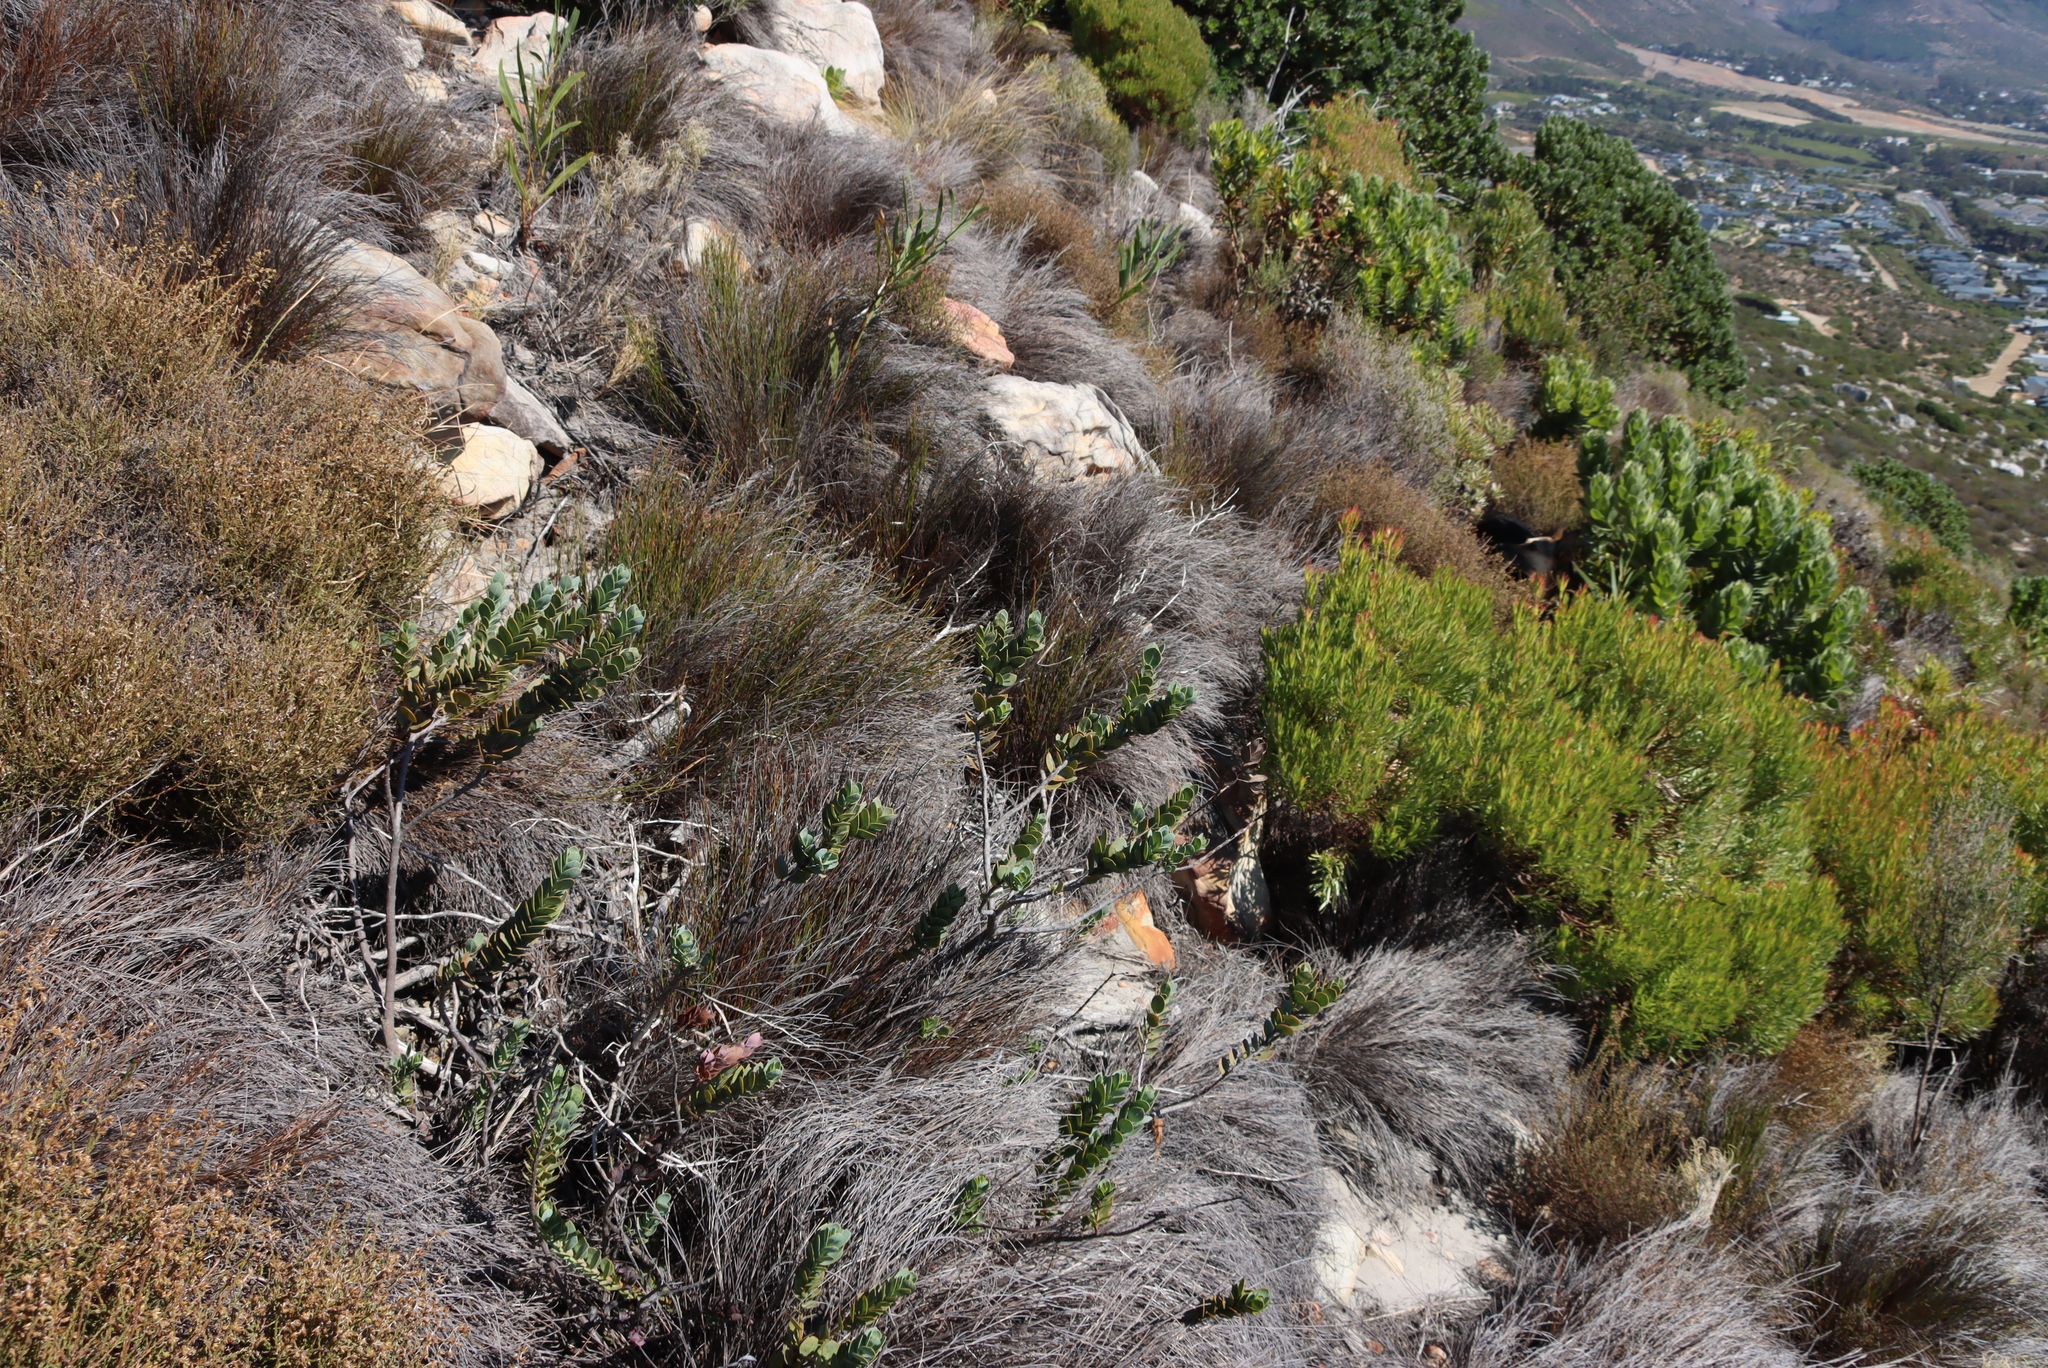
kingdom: Plantae
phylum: Tracheophyta
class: Magnoliopsida
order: Santalales
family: Santalaceae
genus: Osyris
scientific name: Osyris compressa
